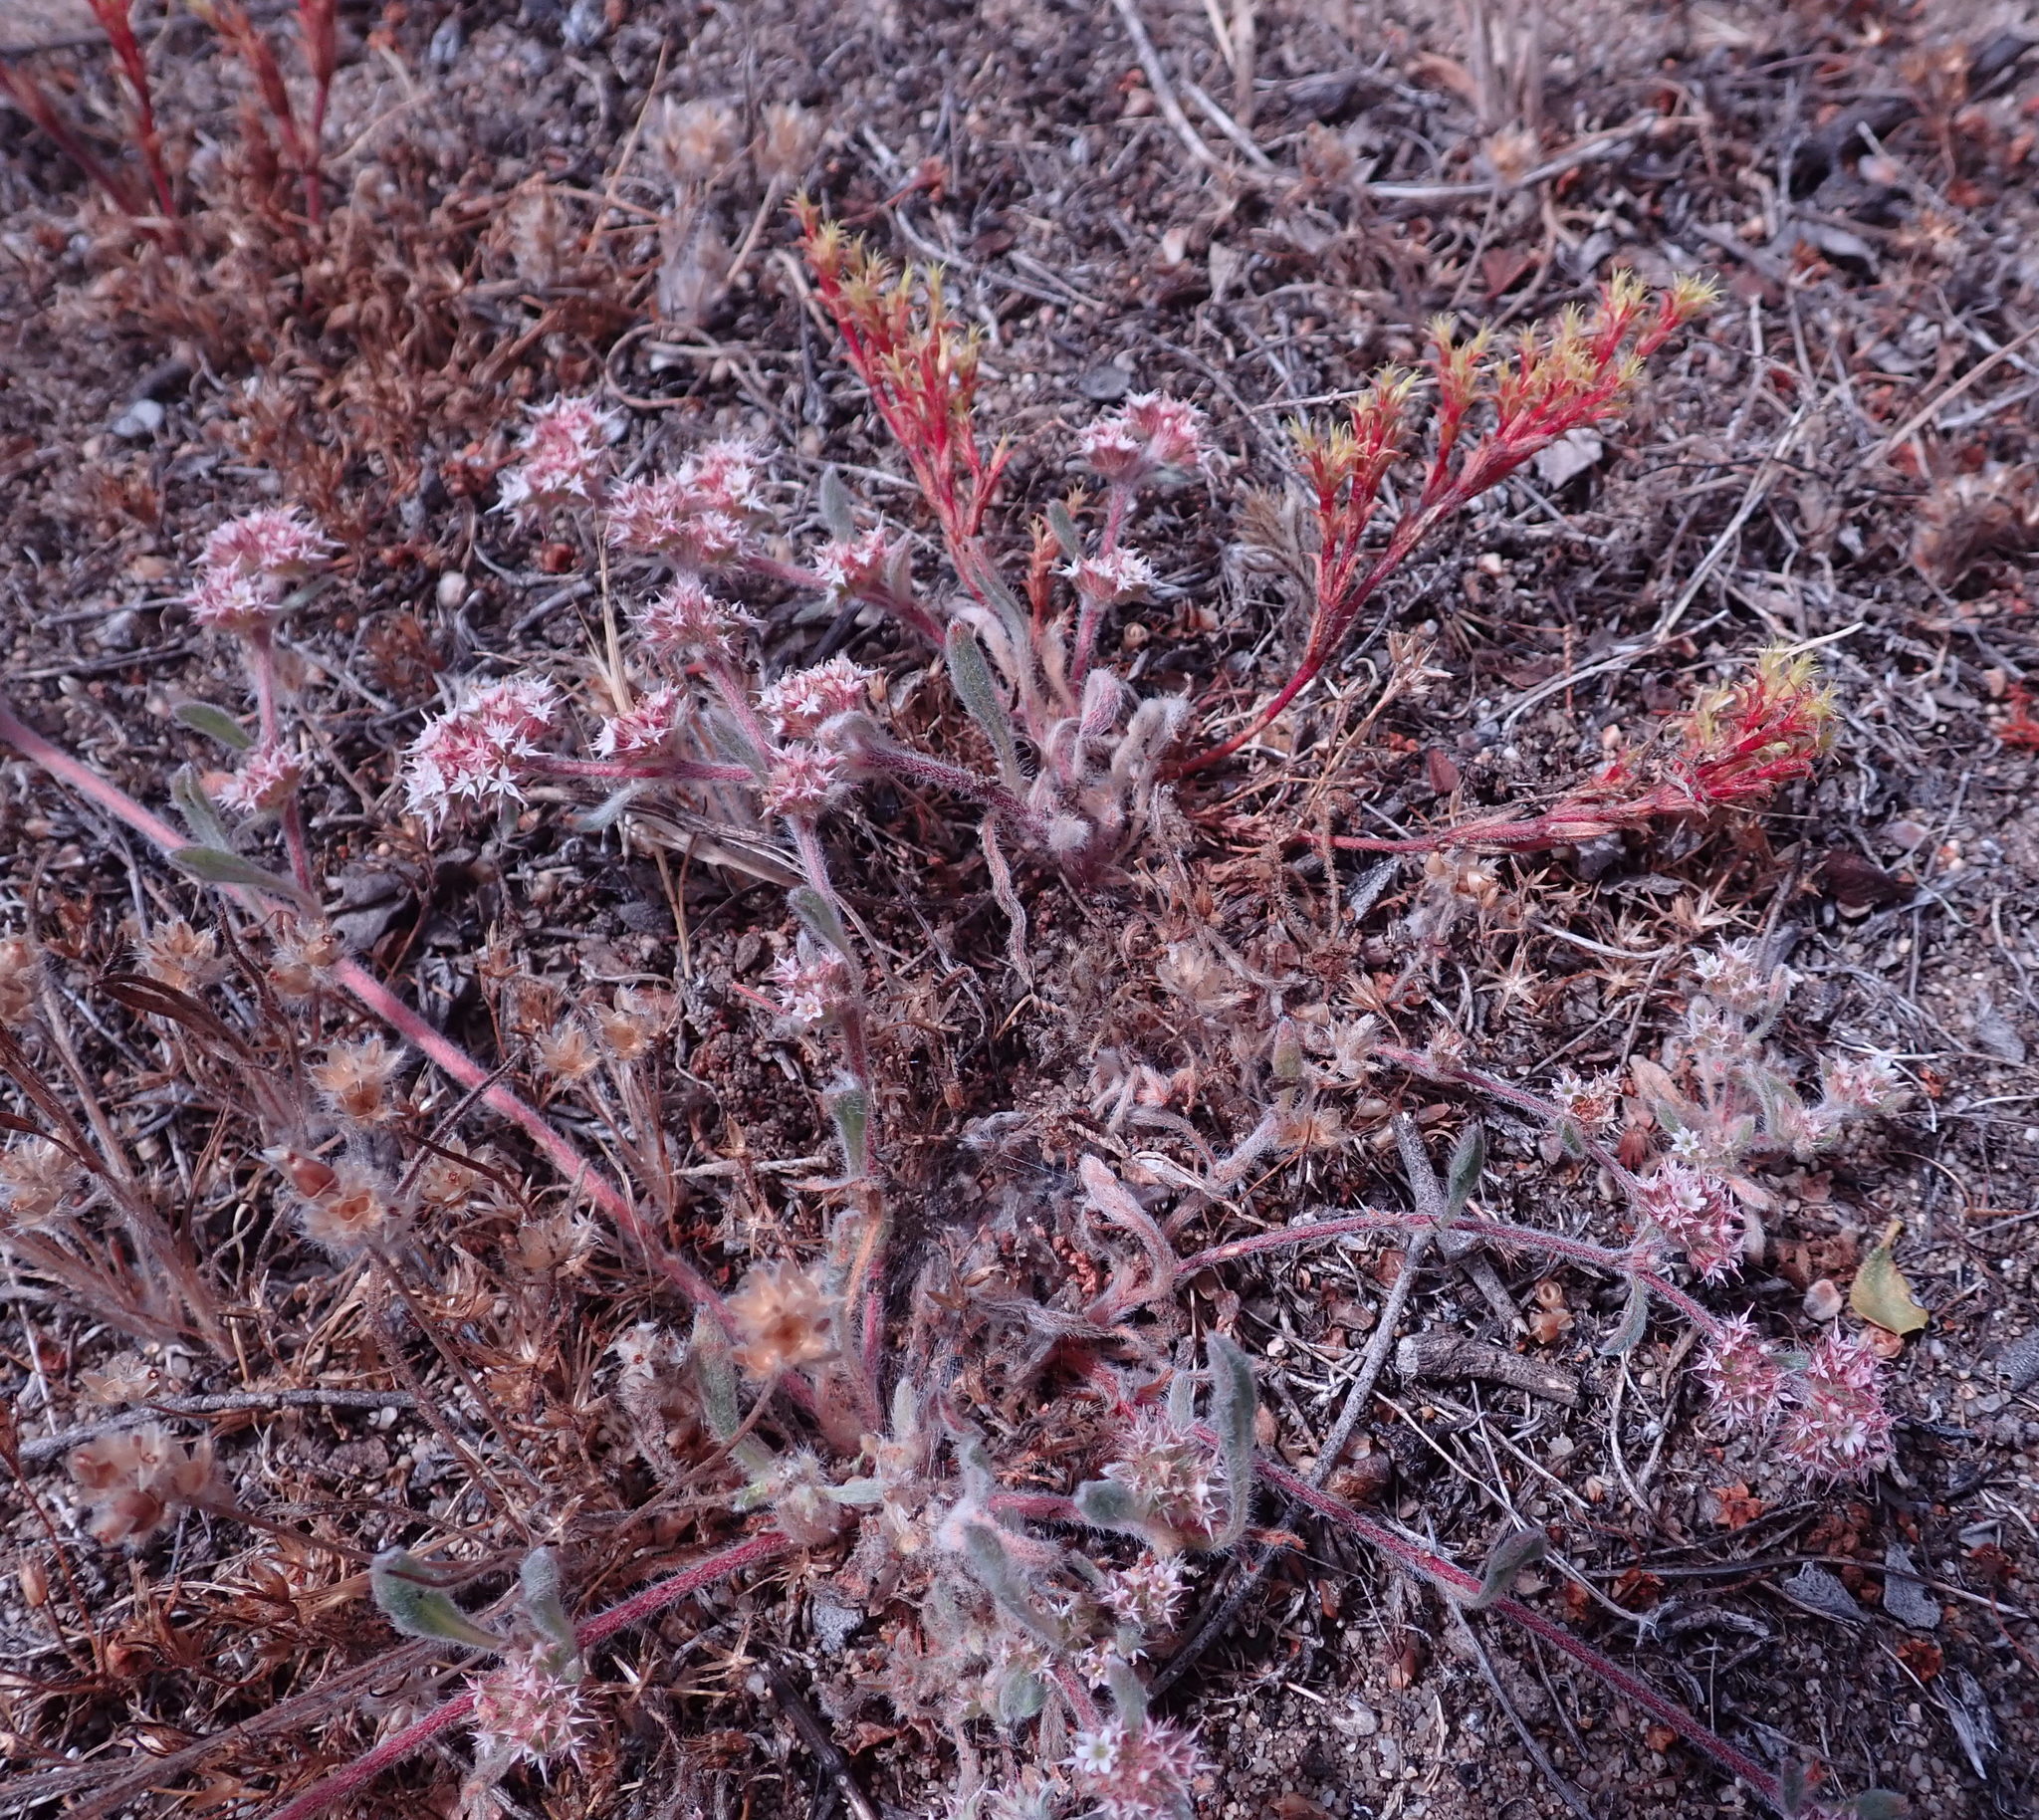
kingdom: Plantae
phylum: Tracheophyta
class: Magnoliopsida
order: Caryophyllales
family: Polygonaceae
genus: Chorizanthe
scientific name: Chorizanthe pungens
